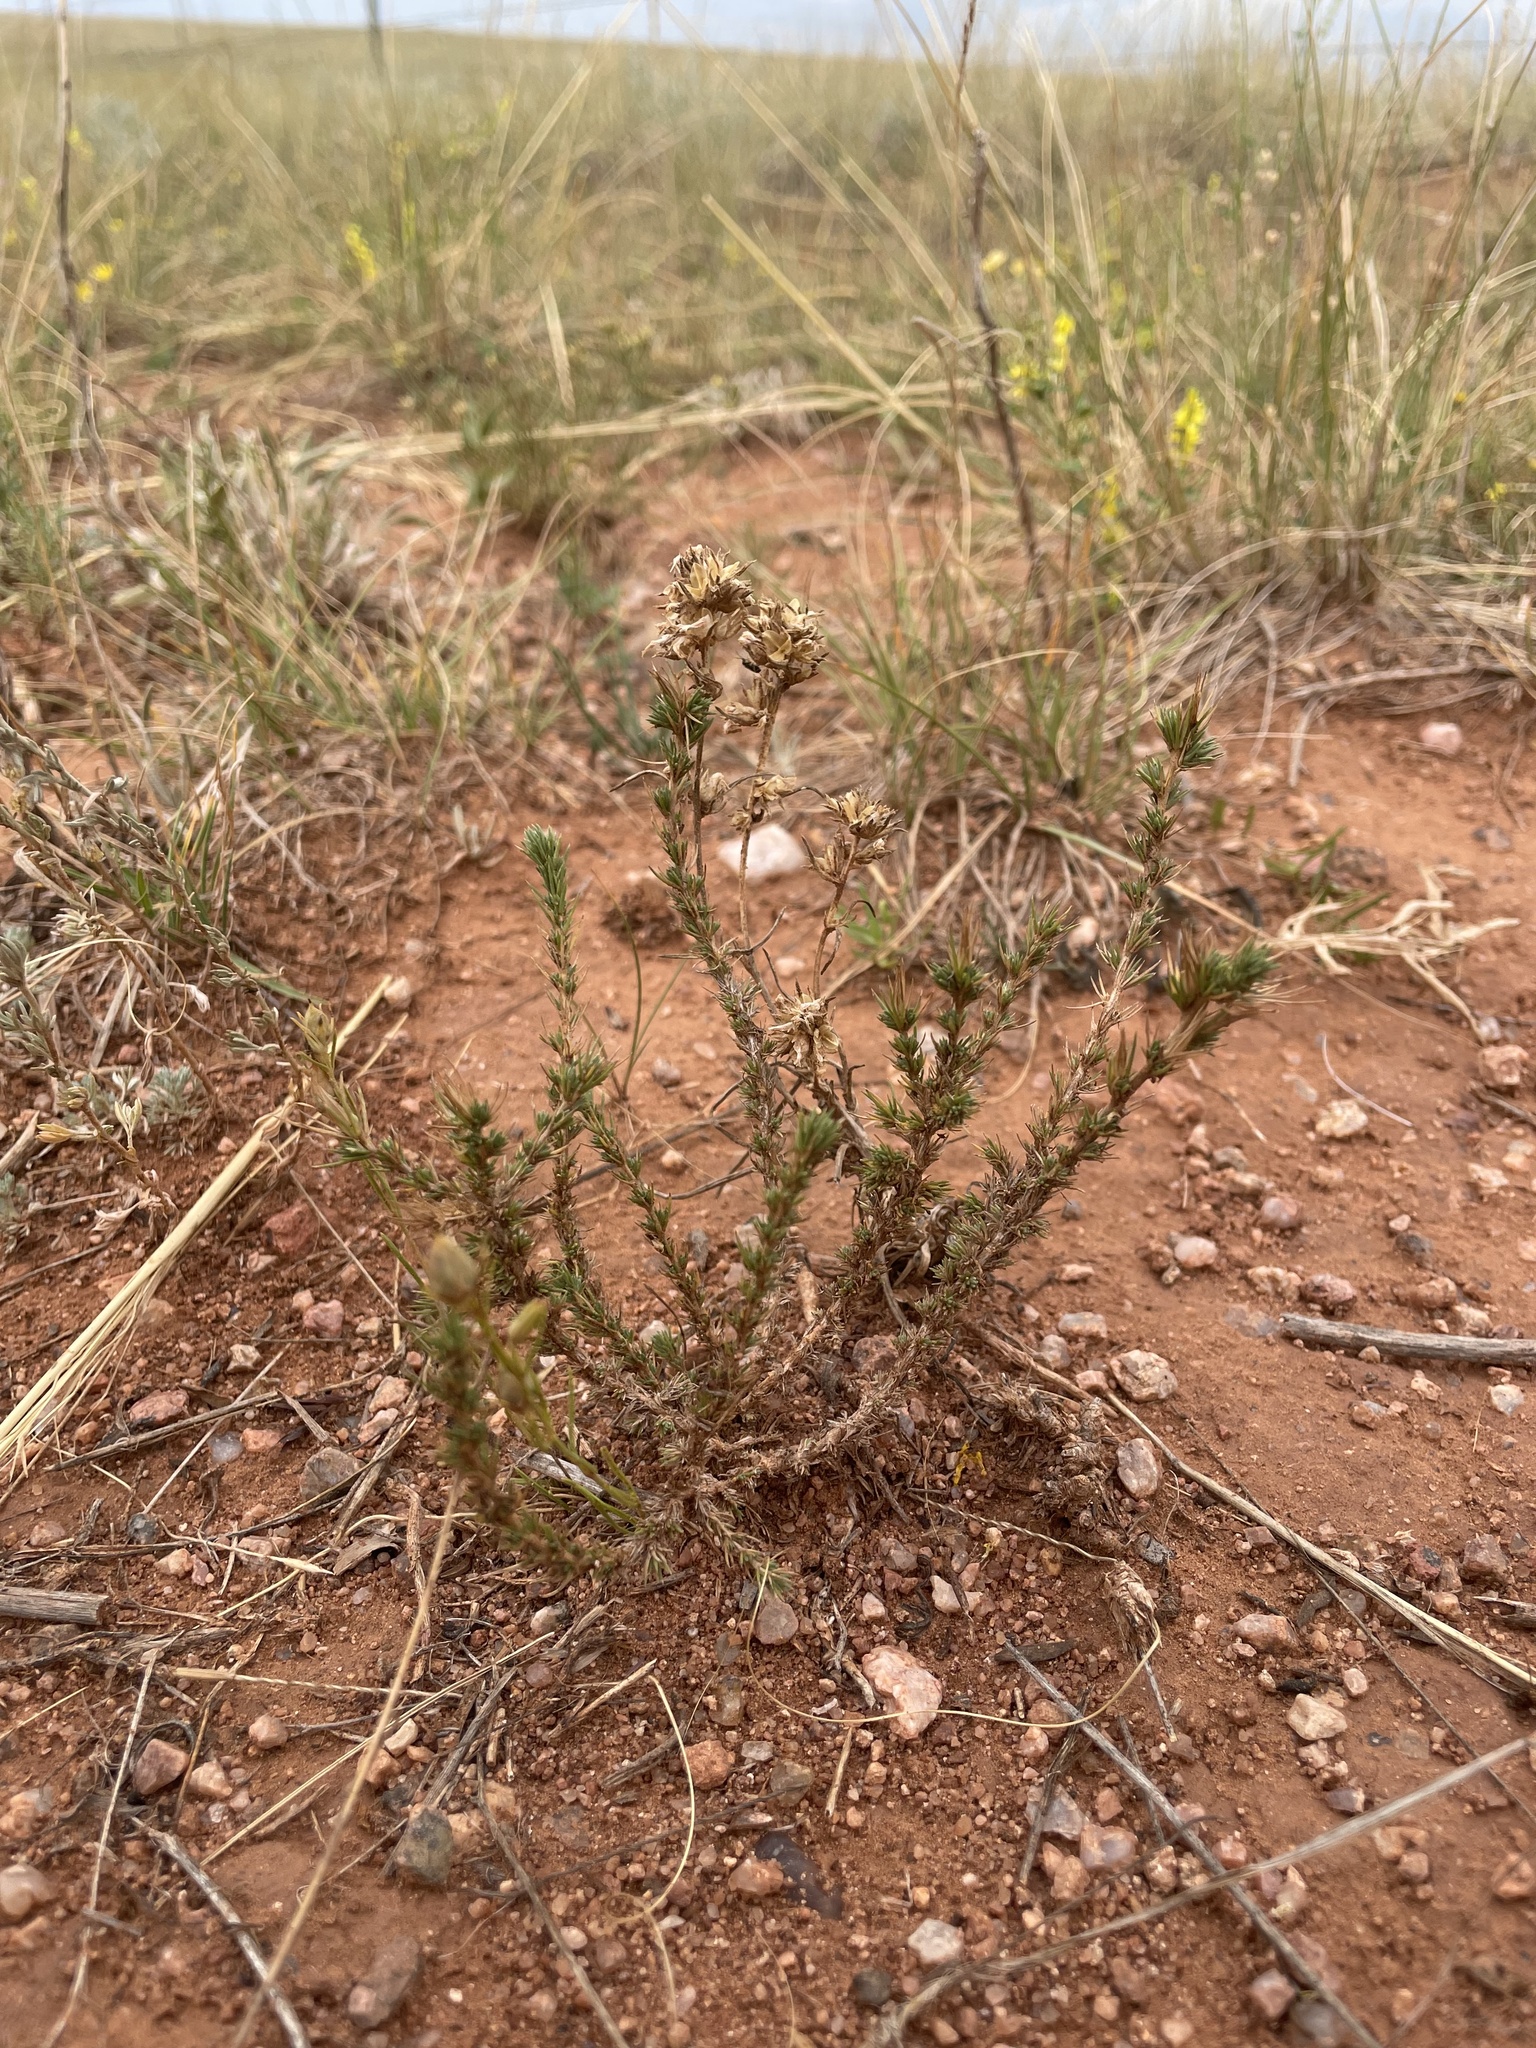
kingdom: Plantae
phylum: Tracheophyta
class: Magnoliopsida
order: Ericales
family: Polemoniaceae
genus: Linanthus
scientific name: Linanthus pungens
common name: Granite prickly phlox
